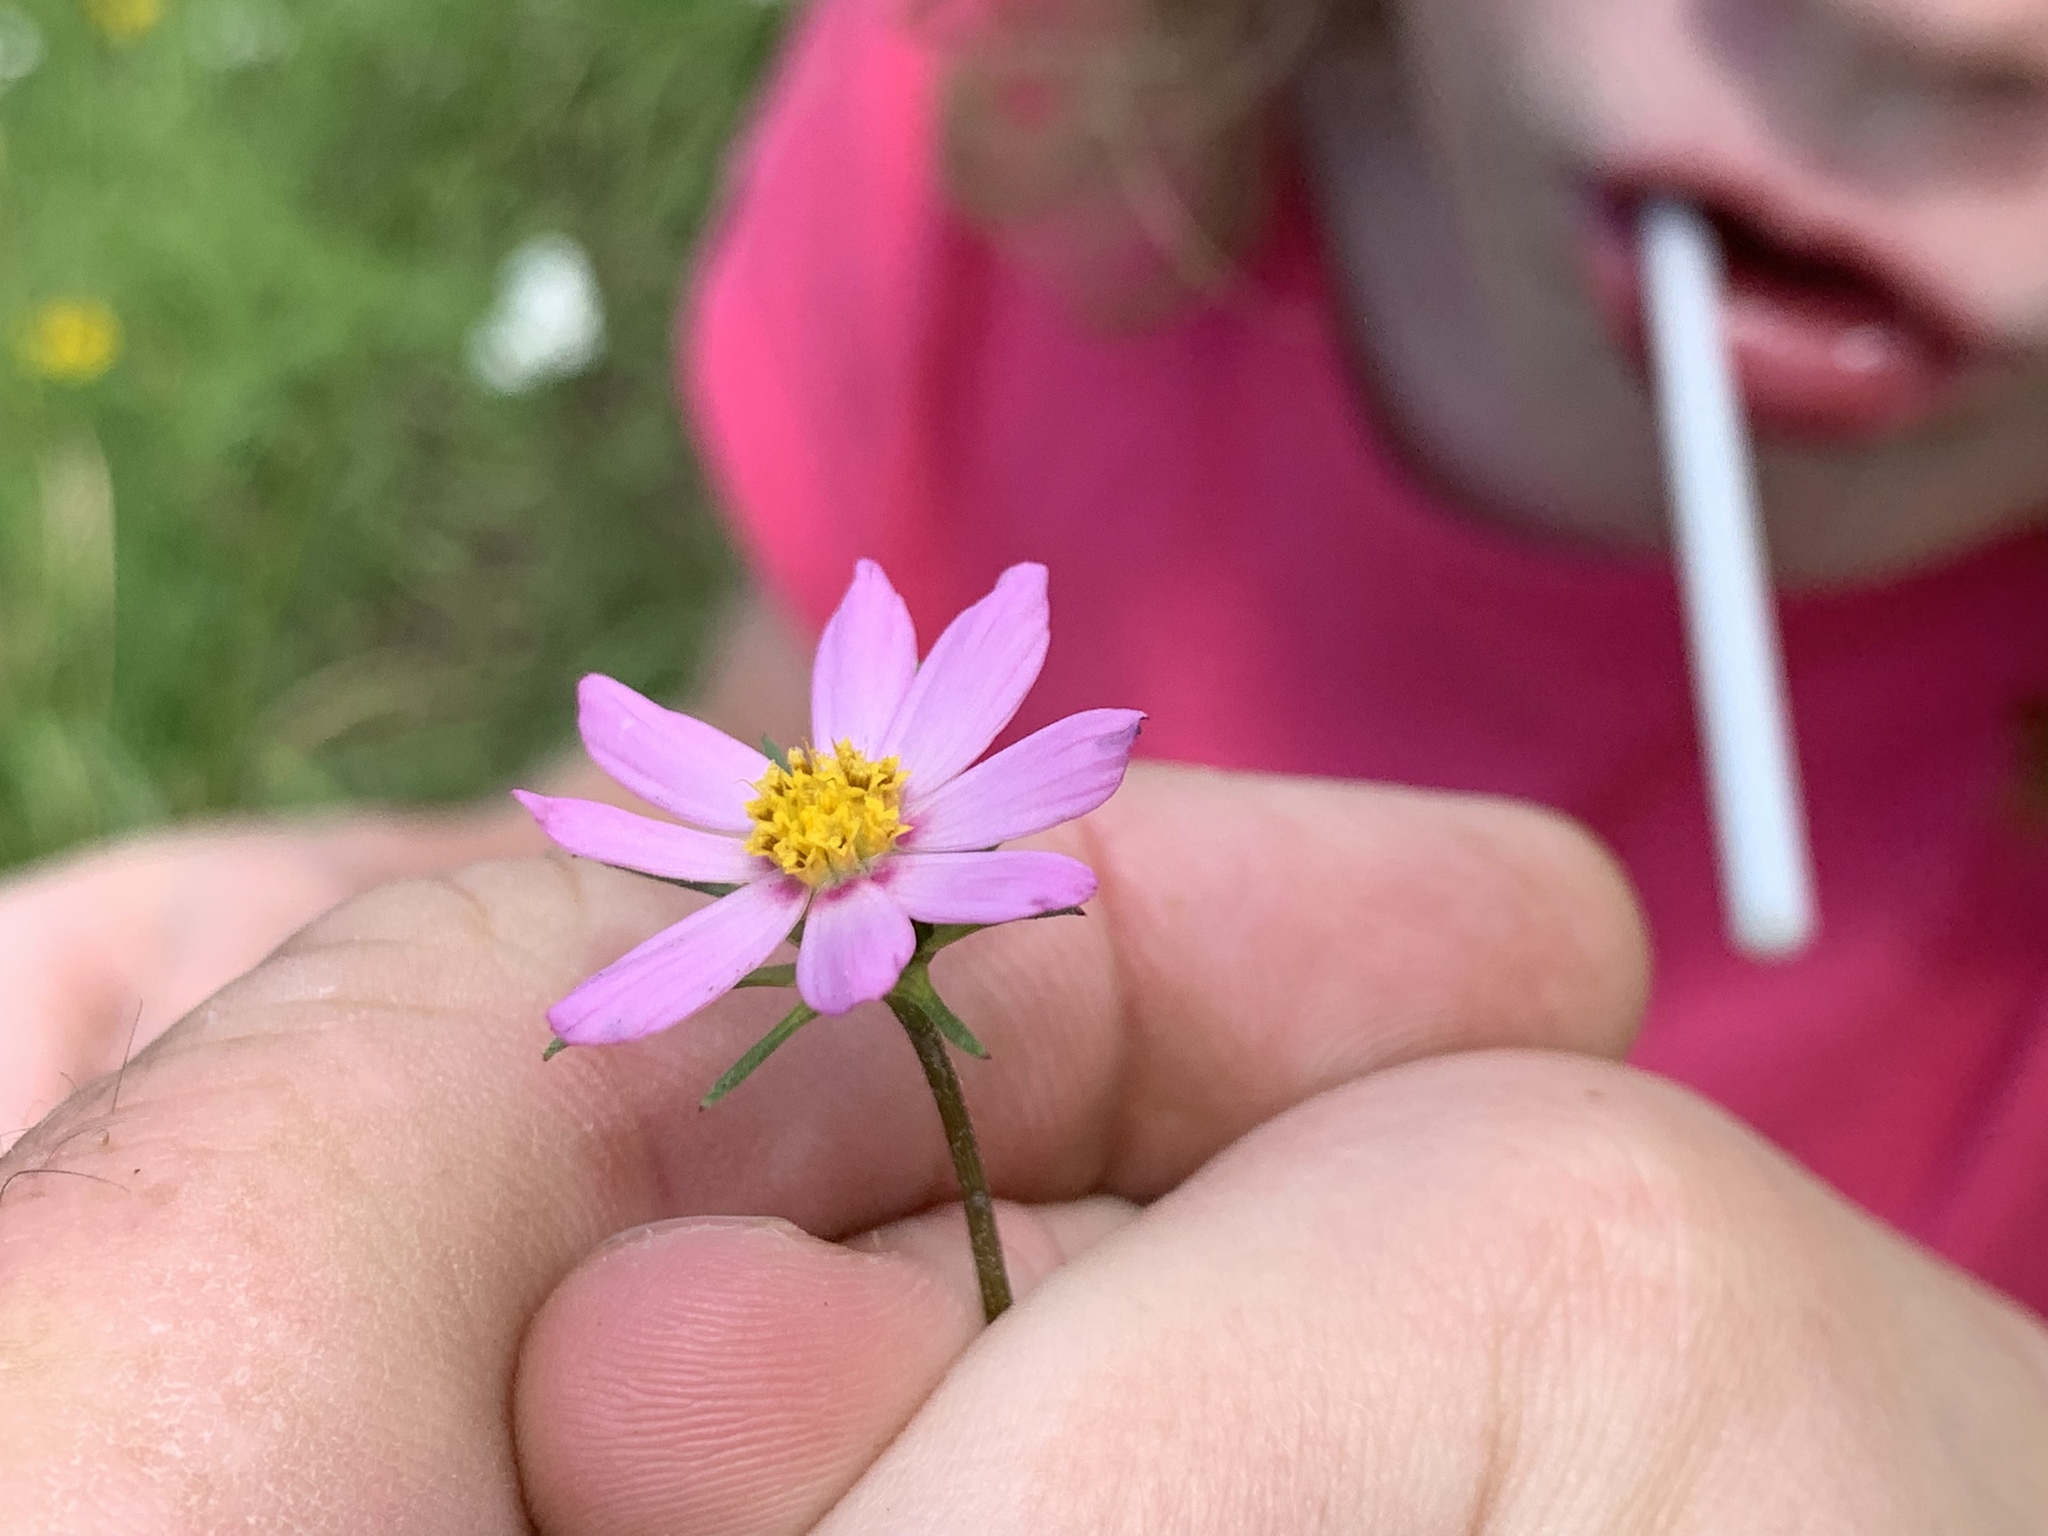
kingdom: Plantae
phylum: Tracheophyta
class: Magnoliopsida
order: Asterales
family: Asteraceae
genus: Cosmos
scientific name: Cosmos parviflorus
